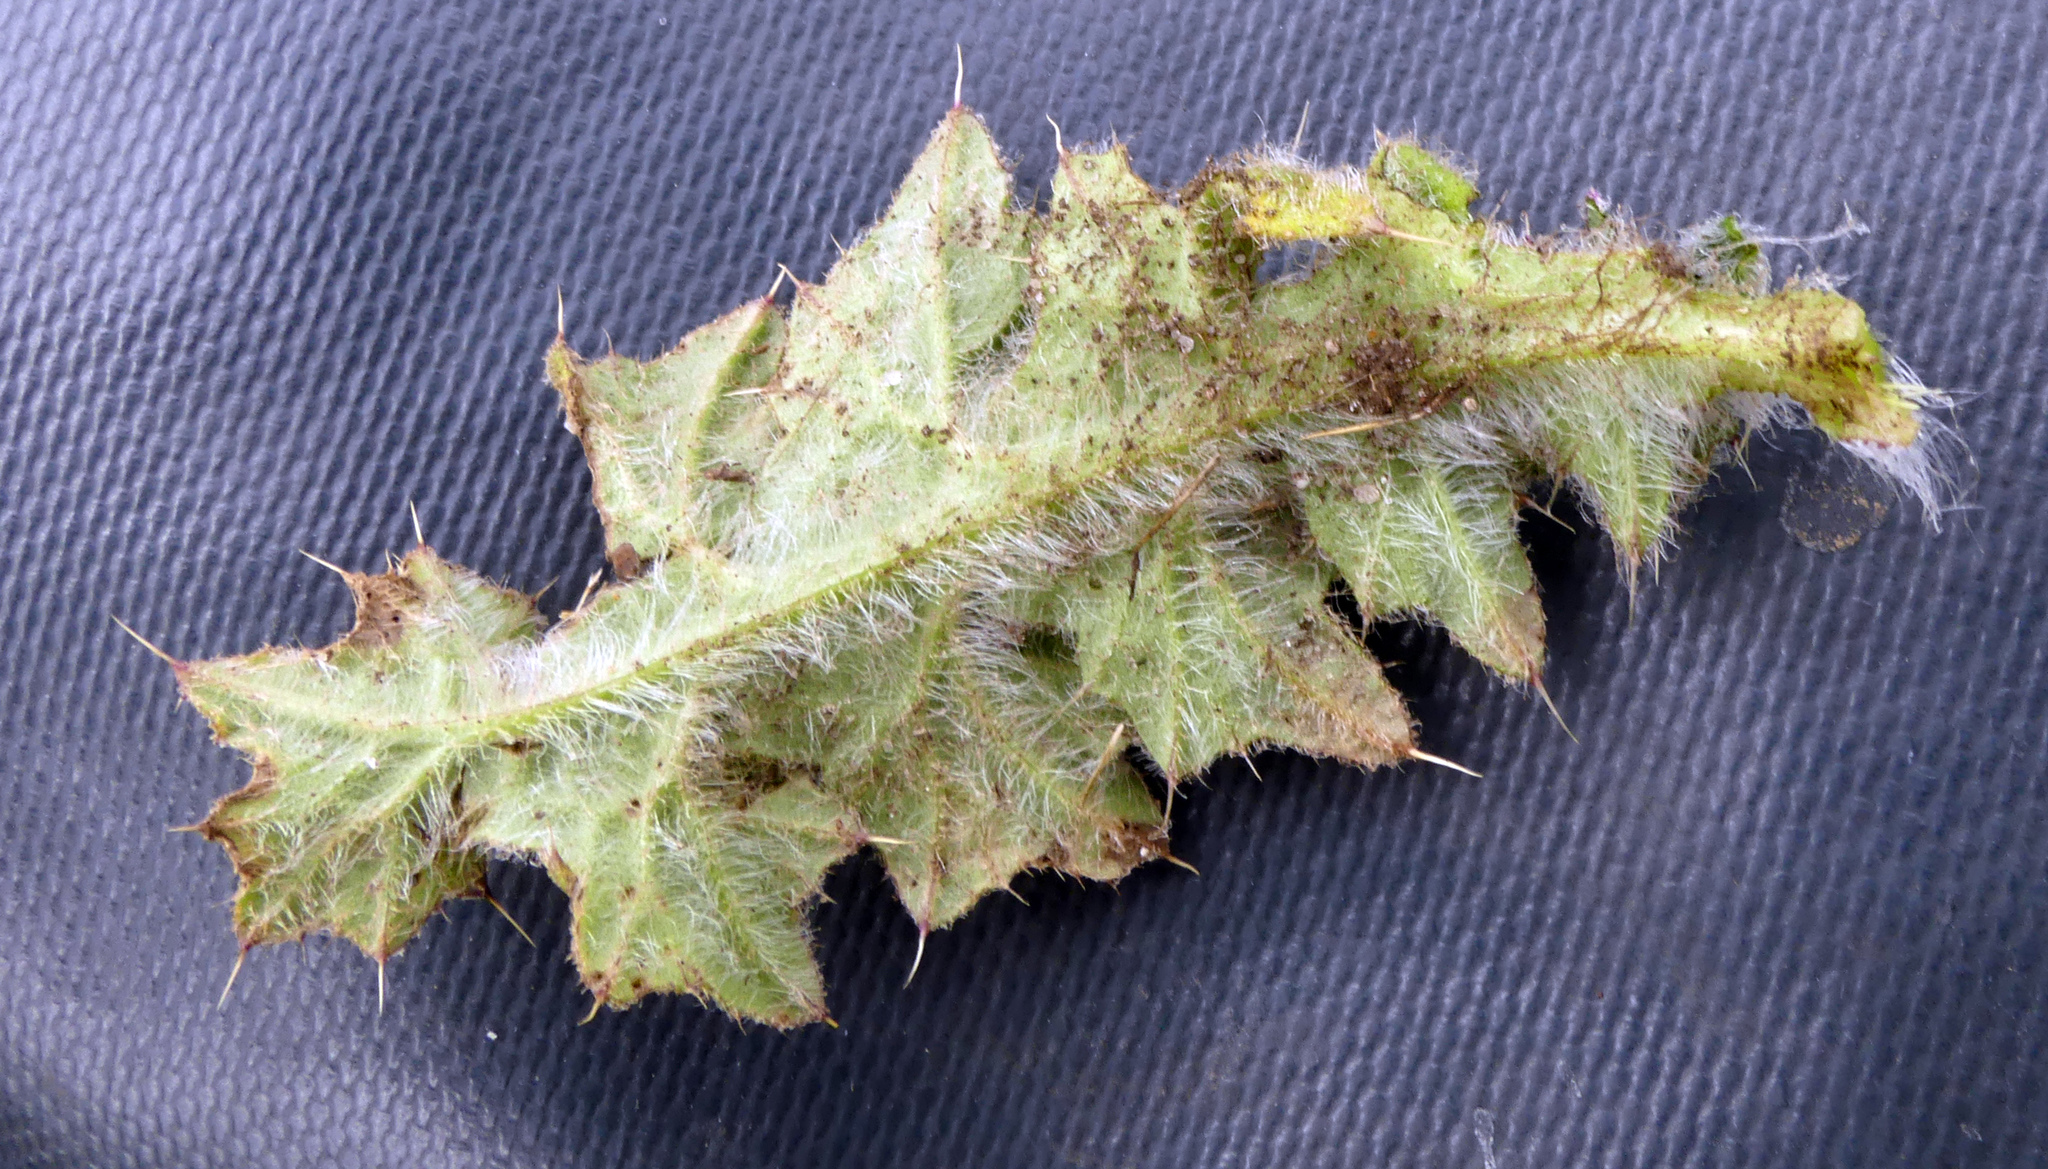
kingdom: Plantae
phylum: Tracheophyta
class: Magnoliopsida
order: Asterales
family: Asteraceae
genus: Cirsium
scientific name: Cirsium vulgare
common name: Bull thistle
